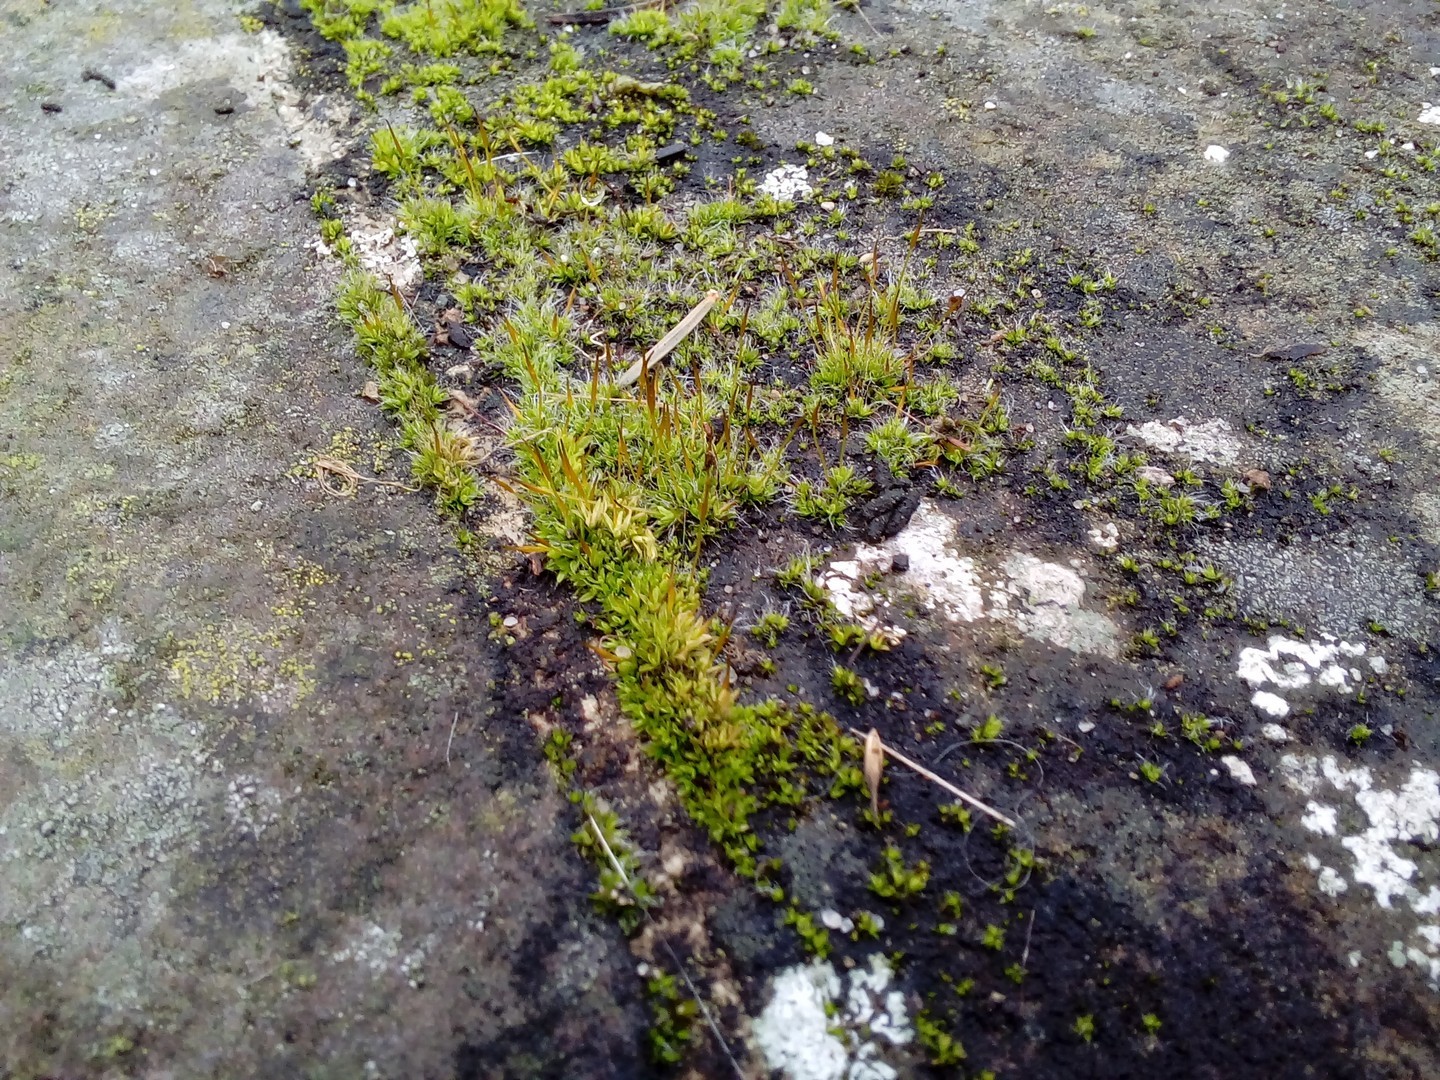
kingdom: Plantae
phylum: Bryophyta
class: Bryopsida
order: Pottiales
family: Pottiaceae
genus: Tortula
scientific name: Tortula muralis
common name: Wall screw-moss
